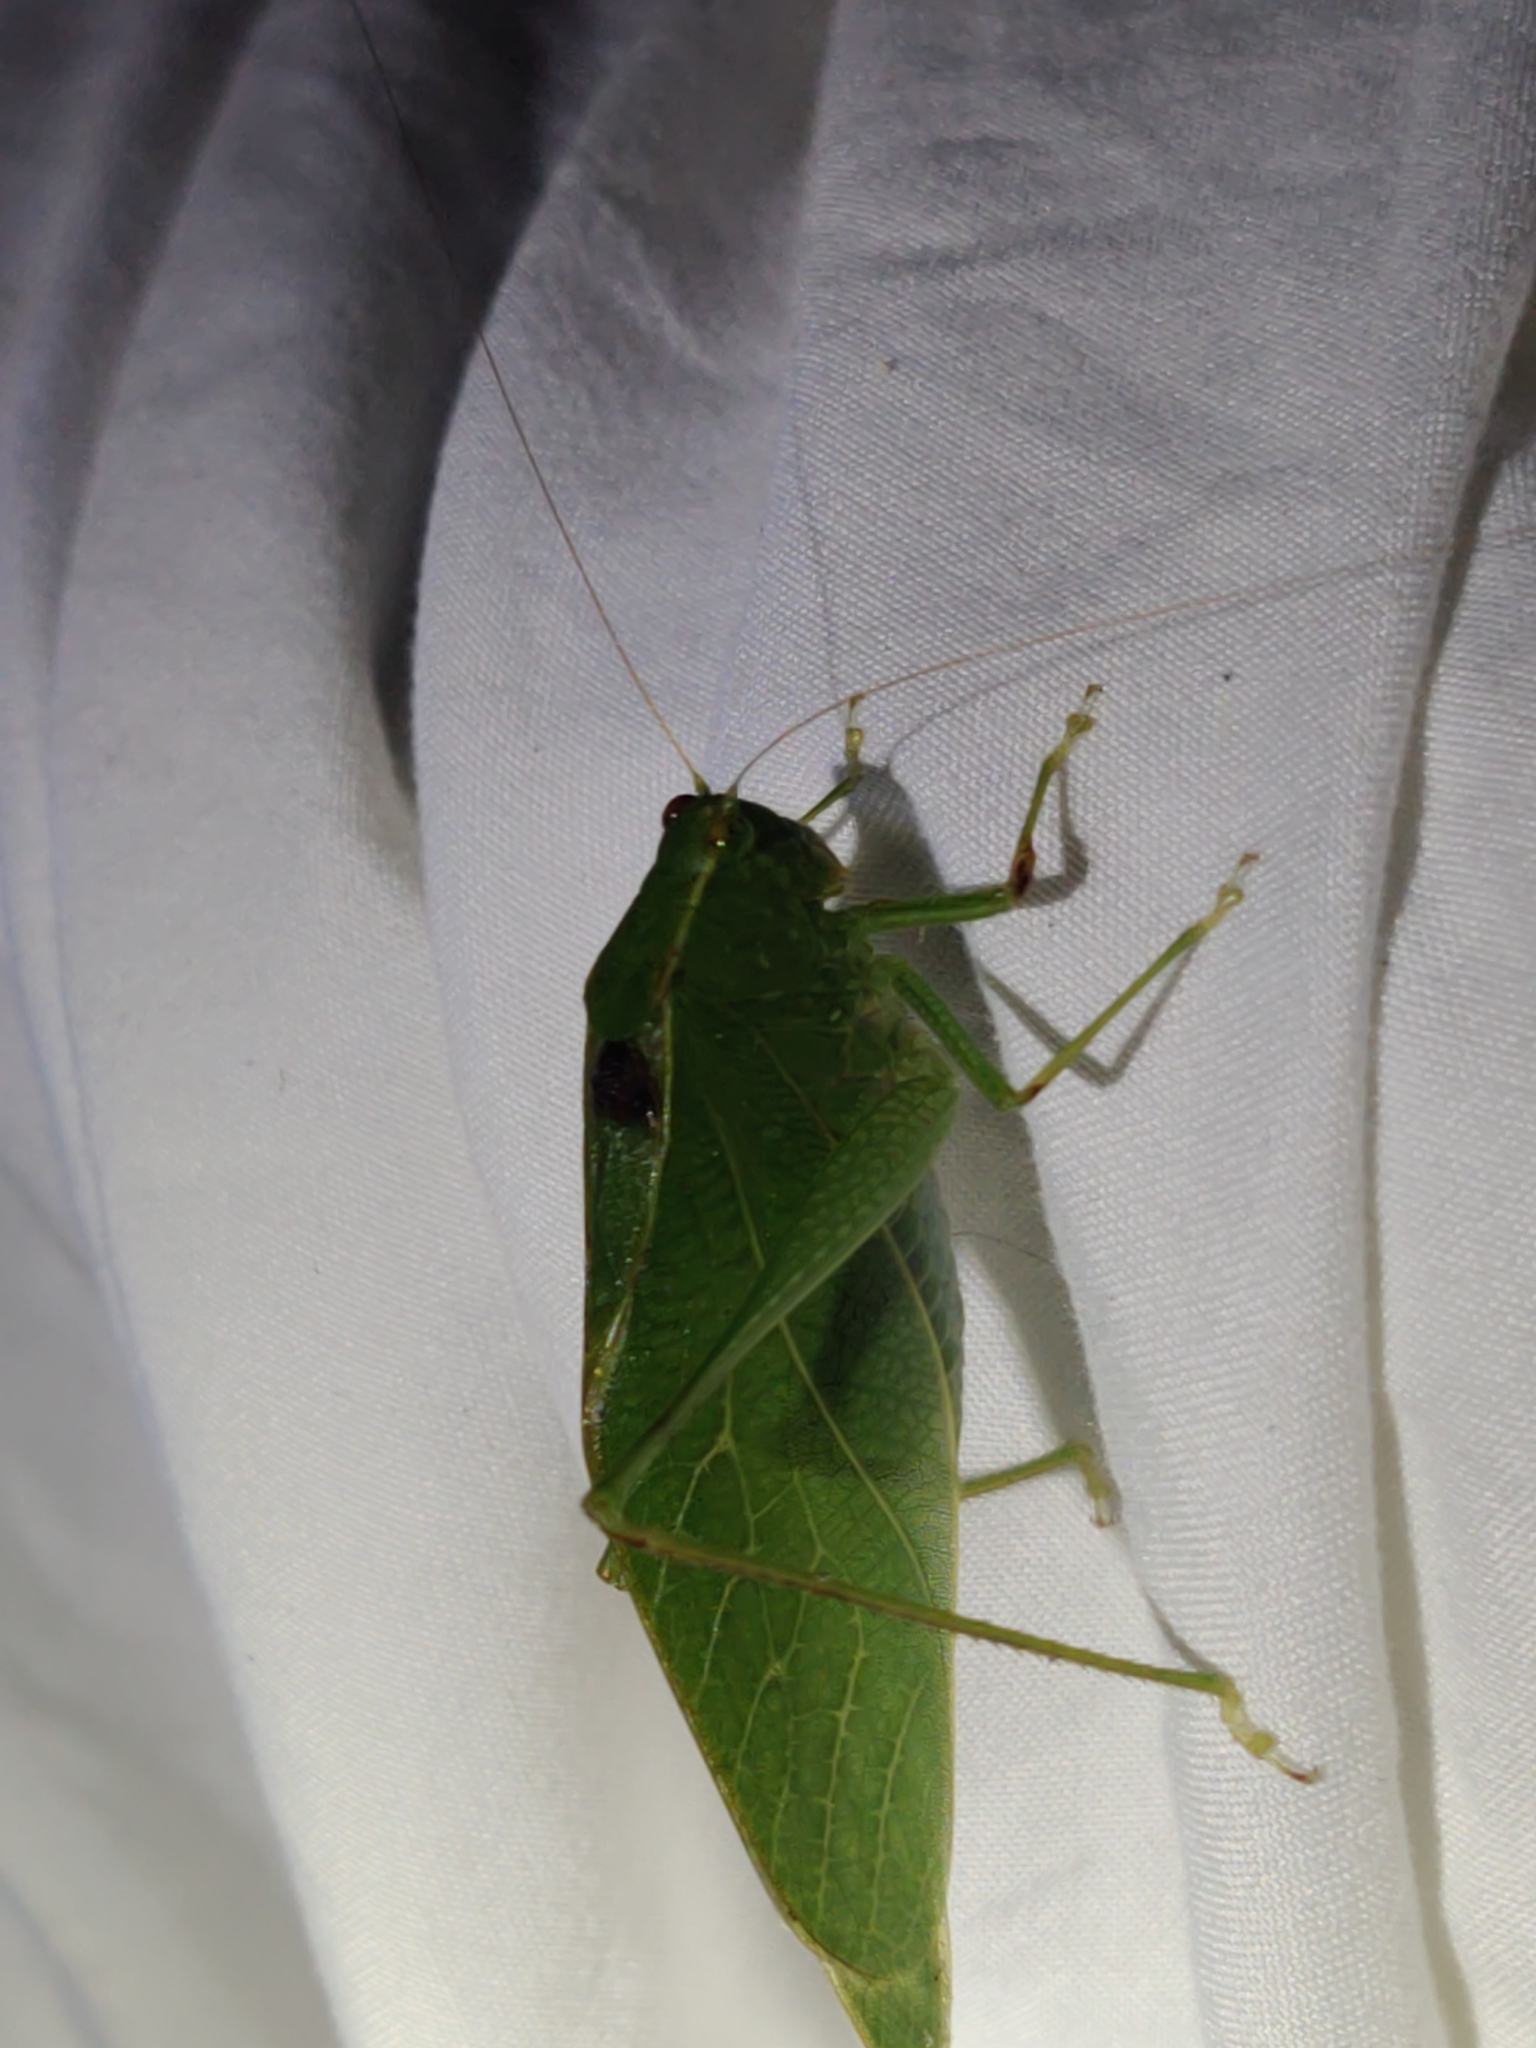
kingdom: Animalia
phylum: Arthropoda
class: Insecta
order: Orthoptera
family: Tettigoniidae
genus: Microcentrum
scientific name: Microcentrum retinerve
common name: Angular-winged katydid
